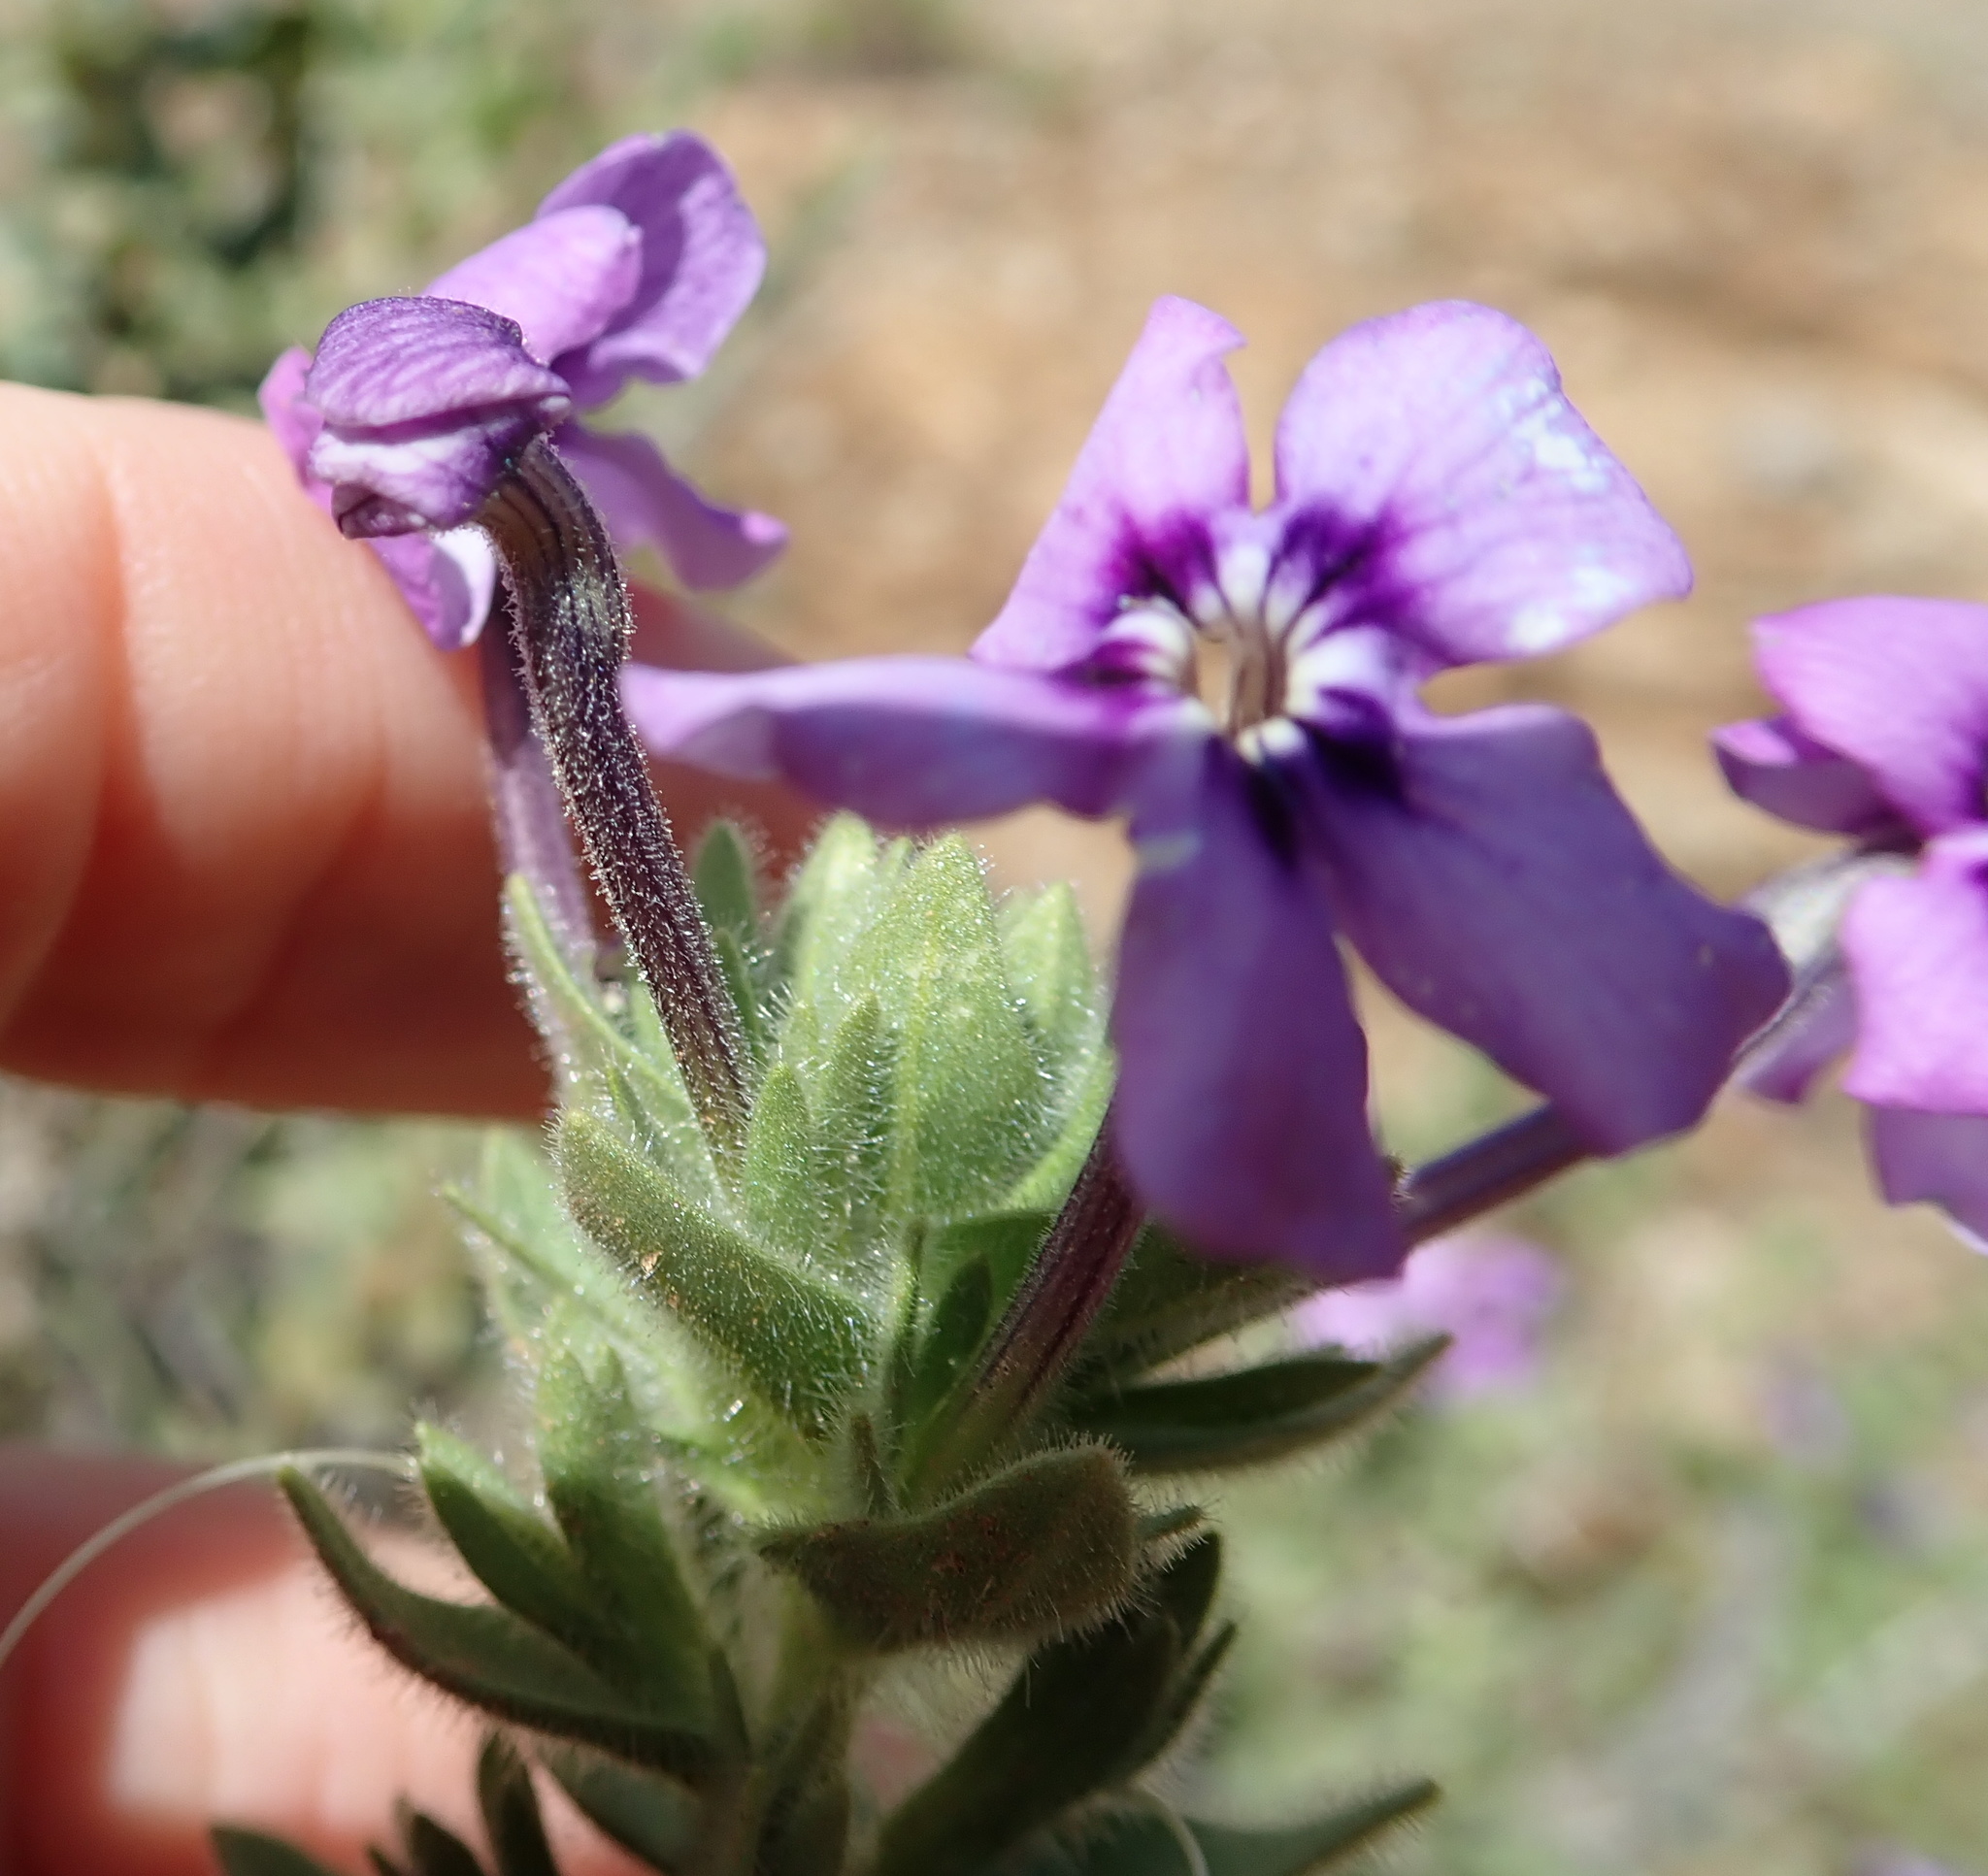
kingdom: Plantae
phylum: Tracheophyta
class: Magnoliopsida
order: Lamiales
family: Scrophulariaceae
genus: Jamesbrittenia
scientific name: Jamesbrittenia fruticosa
